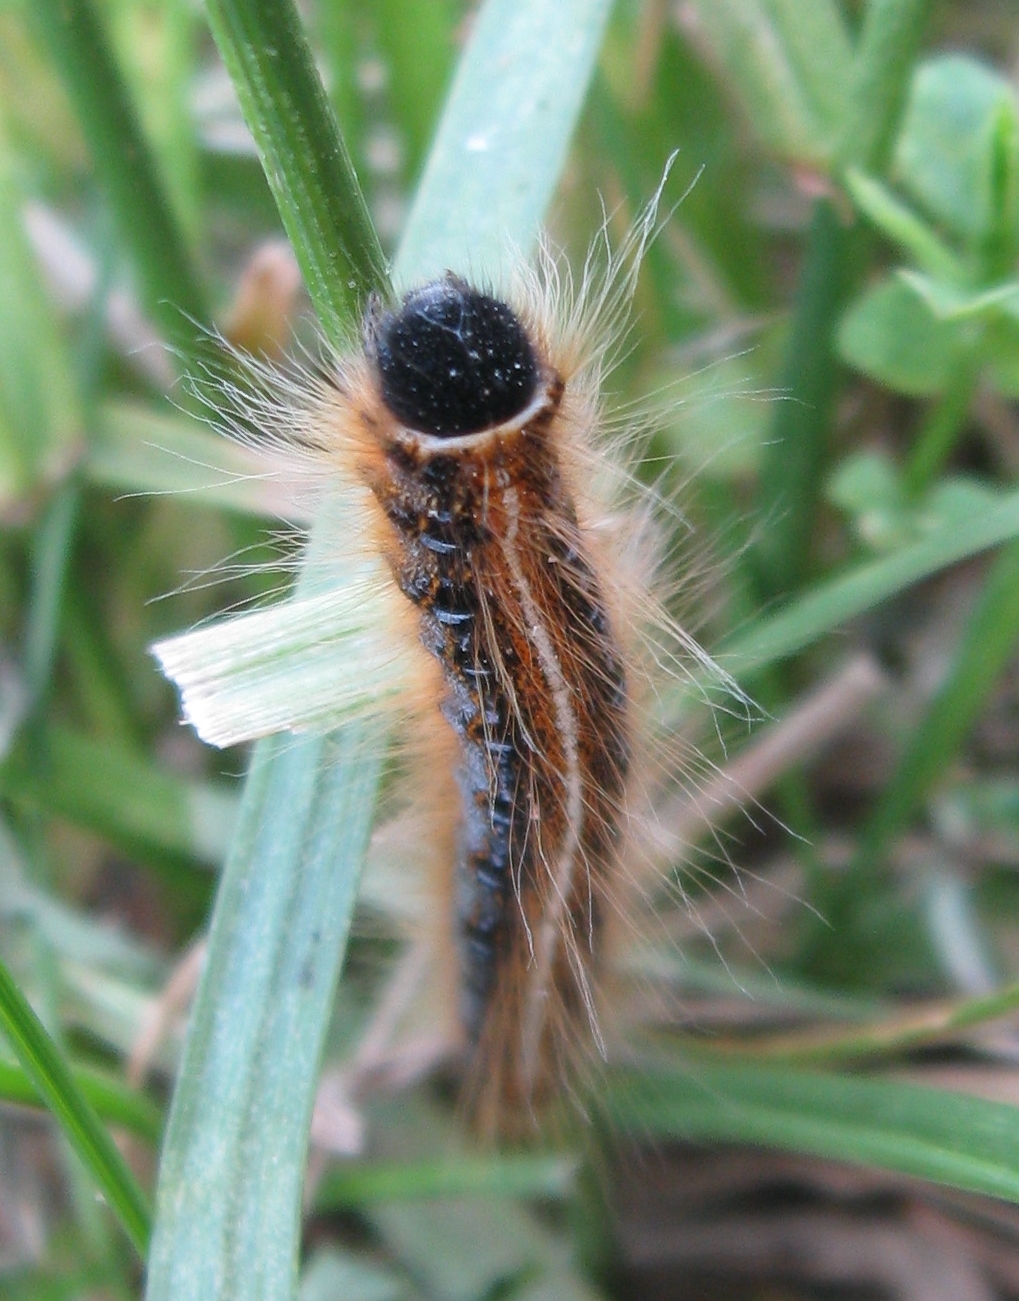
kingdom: Animalia
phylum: Arthropoda
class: Insecta
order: Lepidoptera
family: Lasiocampidae
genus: Malacosoma
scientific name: Malacosoma americana
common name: Eastern tent caterpillar moth
